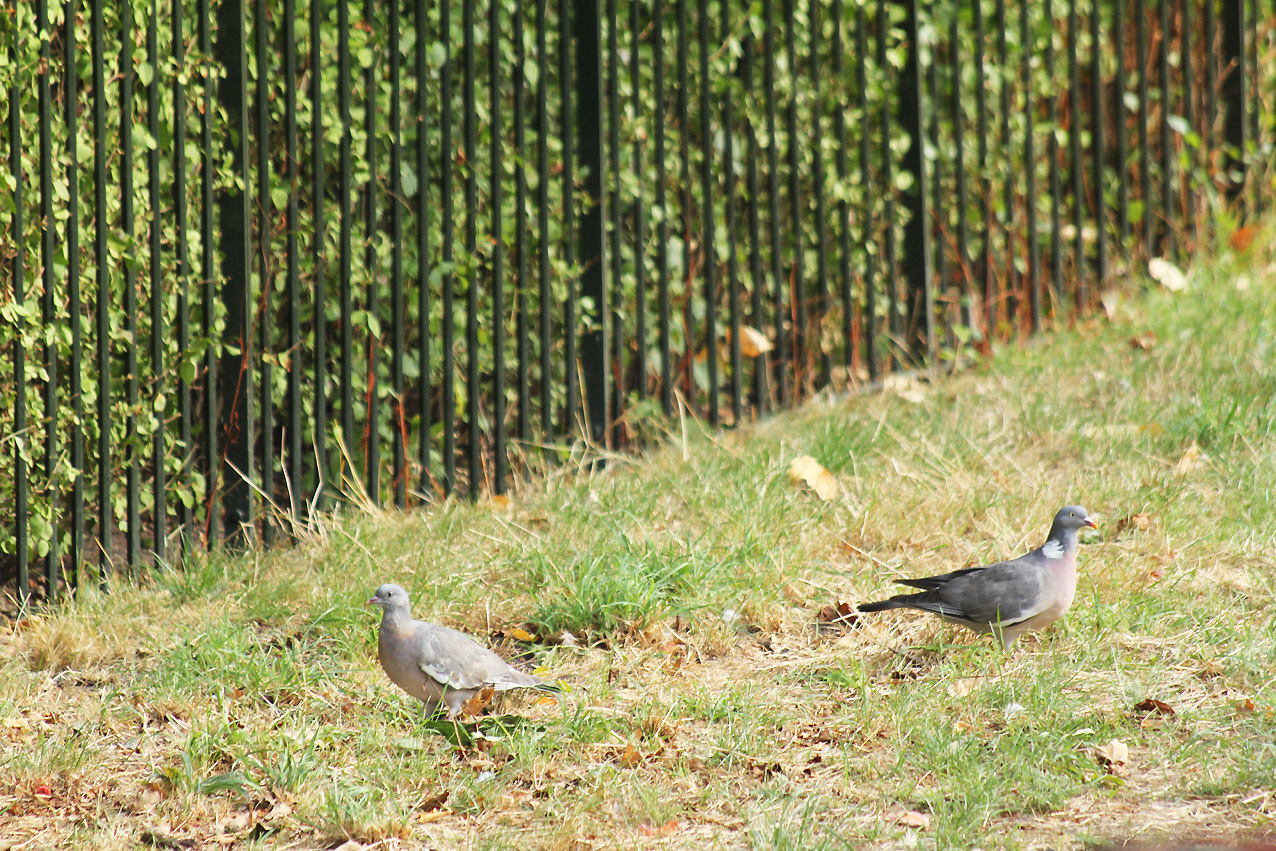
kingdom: Animalia
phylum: Chordata
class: Aves
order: Columbiformes
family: Columbidae
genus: Columba
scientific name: Columba palumbus
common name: Common wood pigeon
